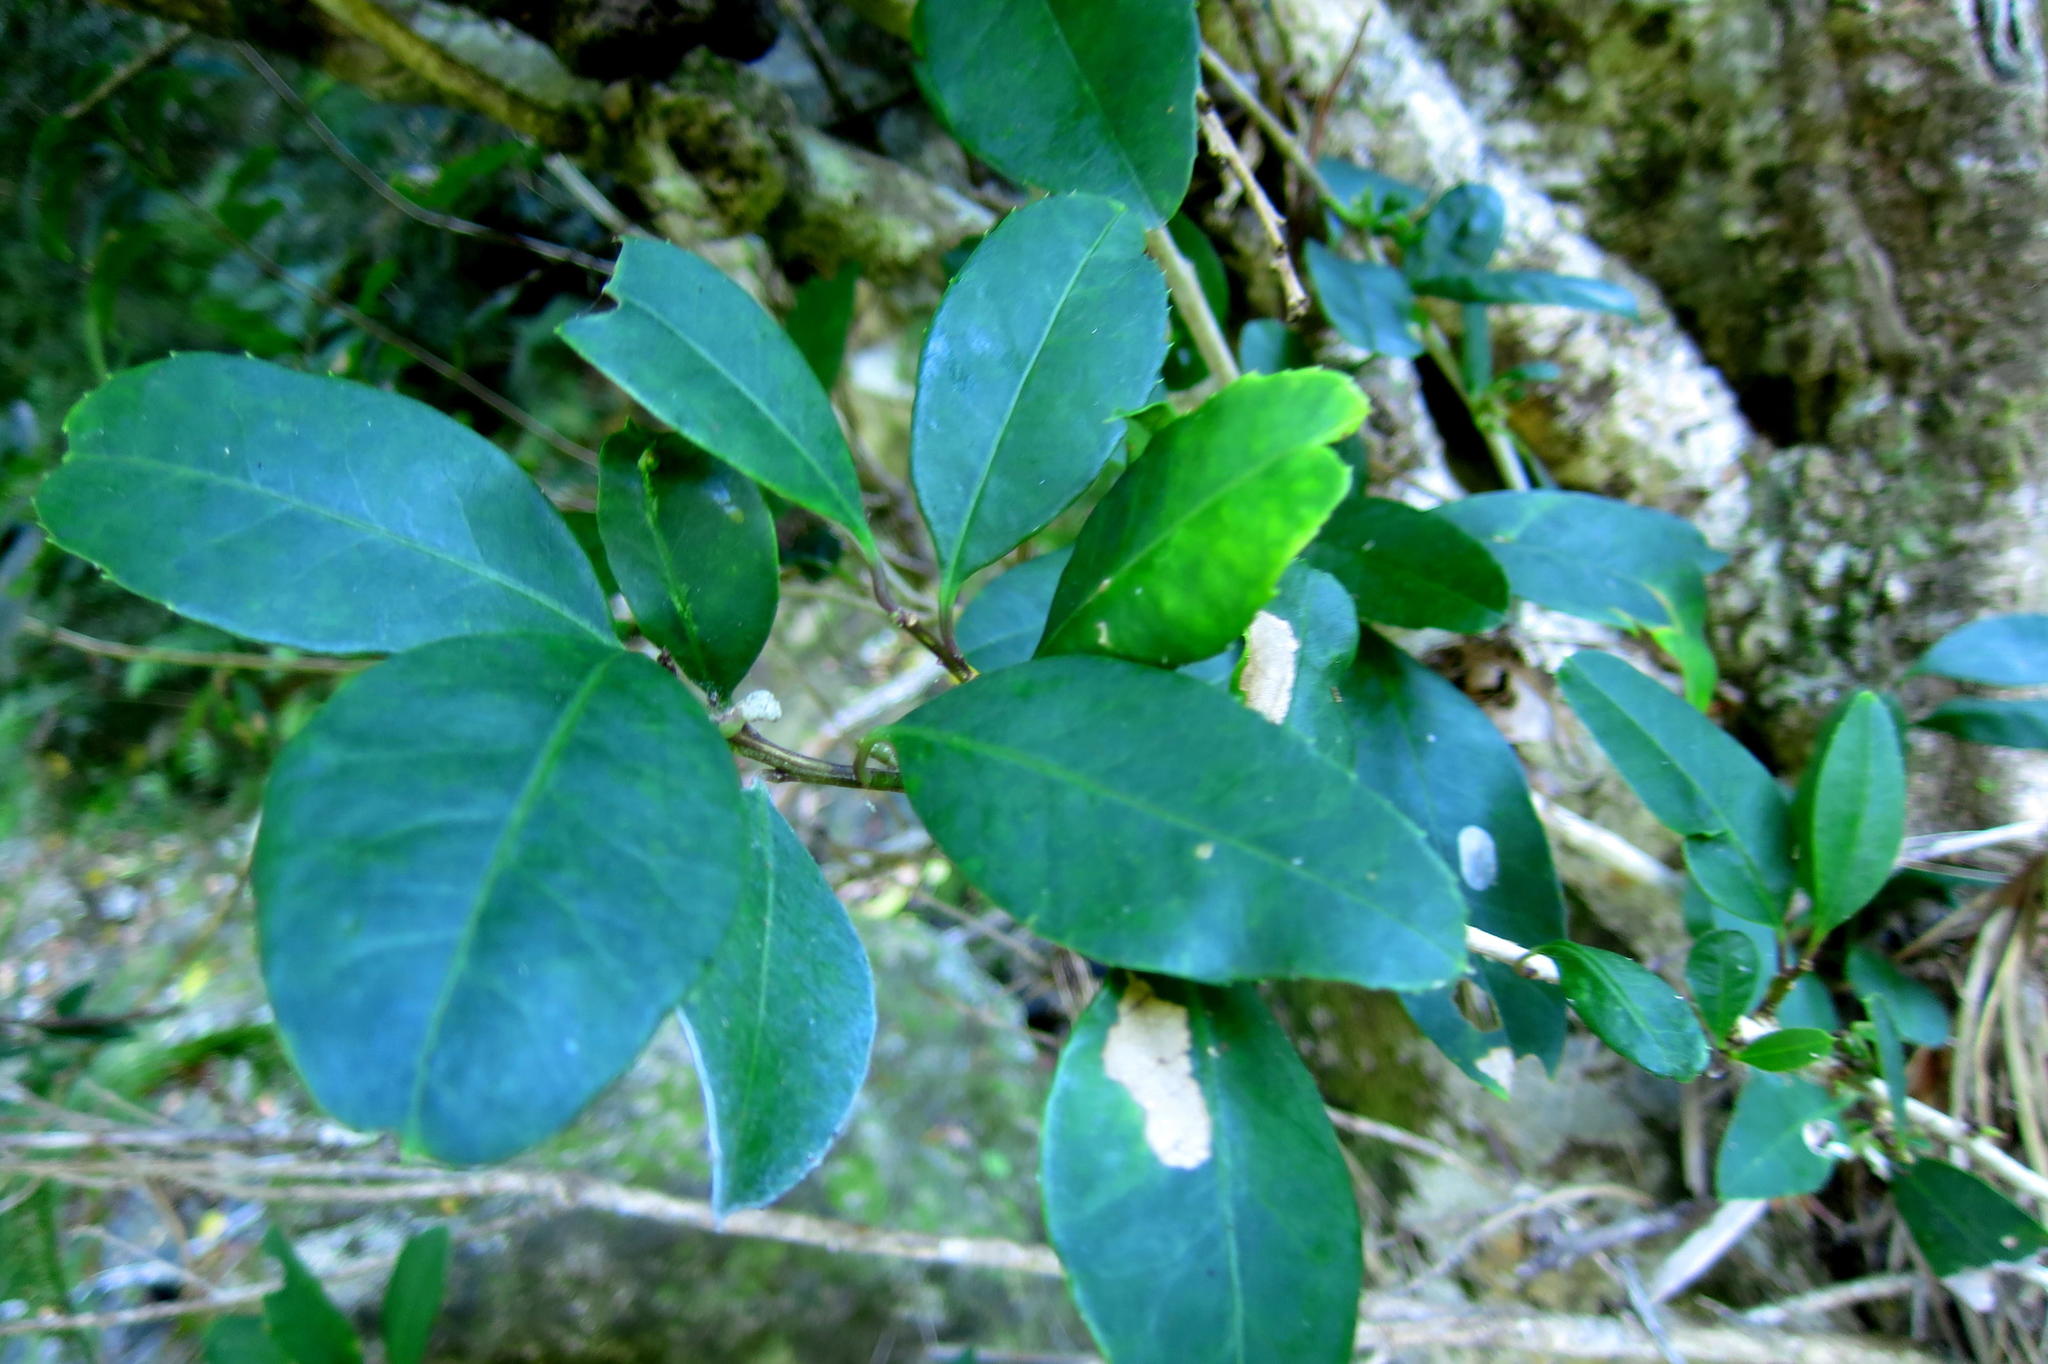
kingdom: Plantae
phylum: Tracheophyta
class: Magnoliopsida
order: Celastrales
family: Celastraceae
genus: Elaeodendron
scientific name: Elaeodendron croceum
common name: Saffron
